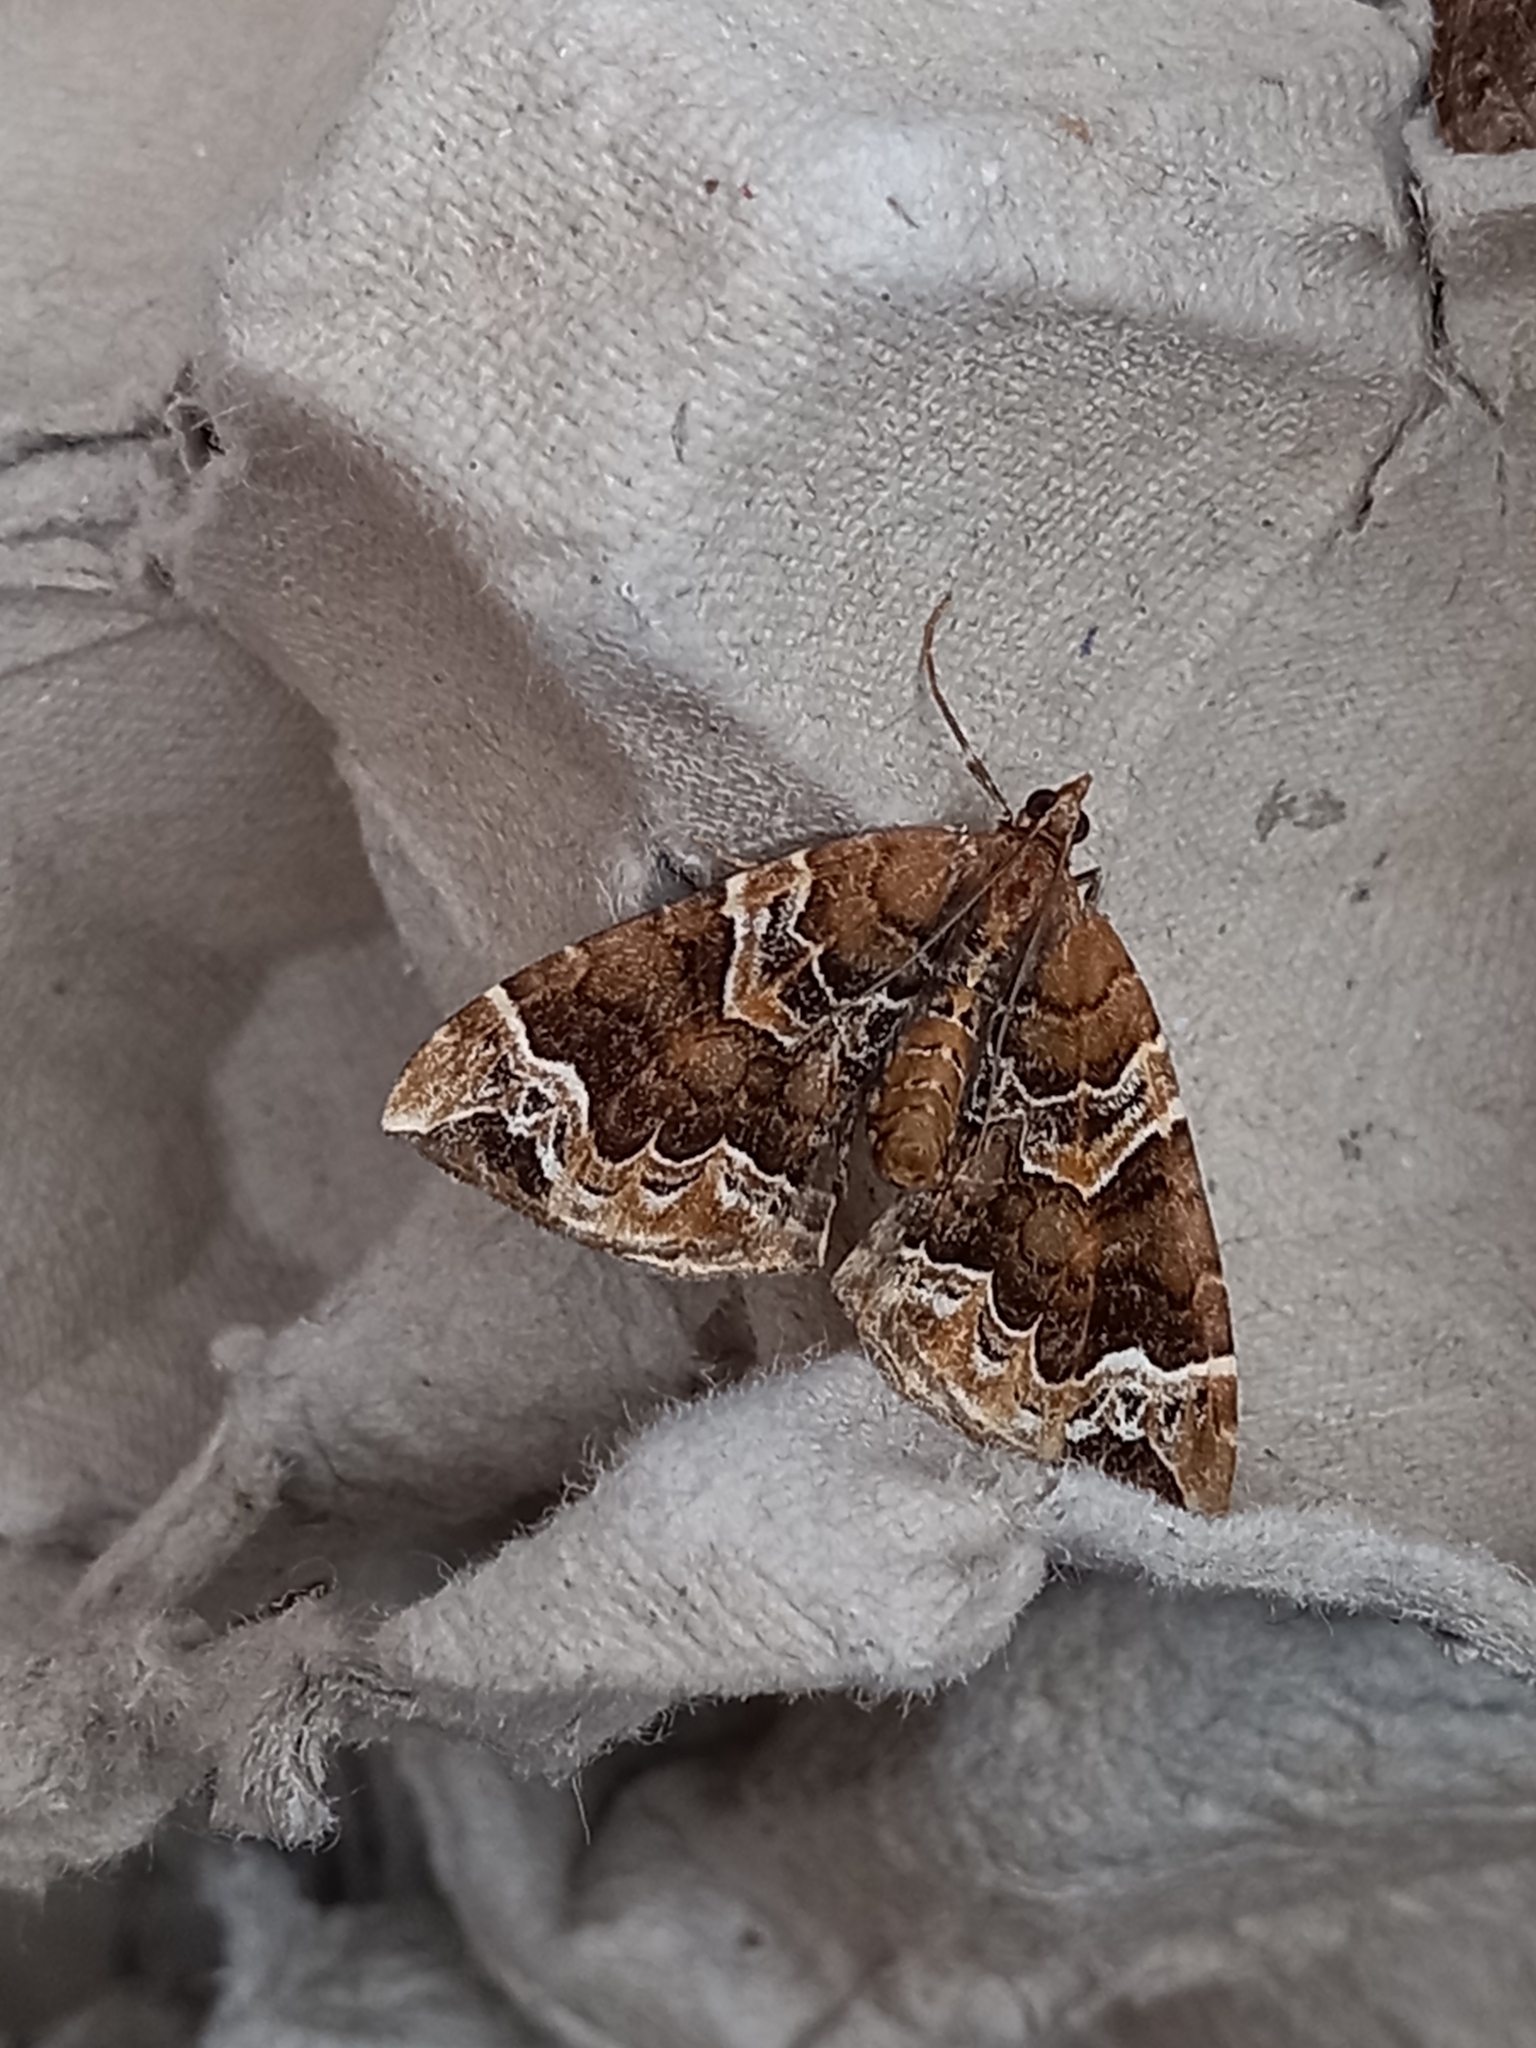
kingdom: Animalia
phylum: Arthropoda
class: Insecta
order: Lepidoptera
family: Geometridae
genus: Eulithis
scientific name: Eulithis prunata
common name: Phoenix
